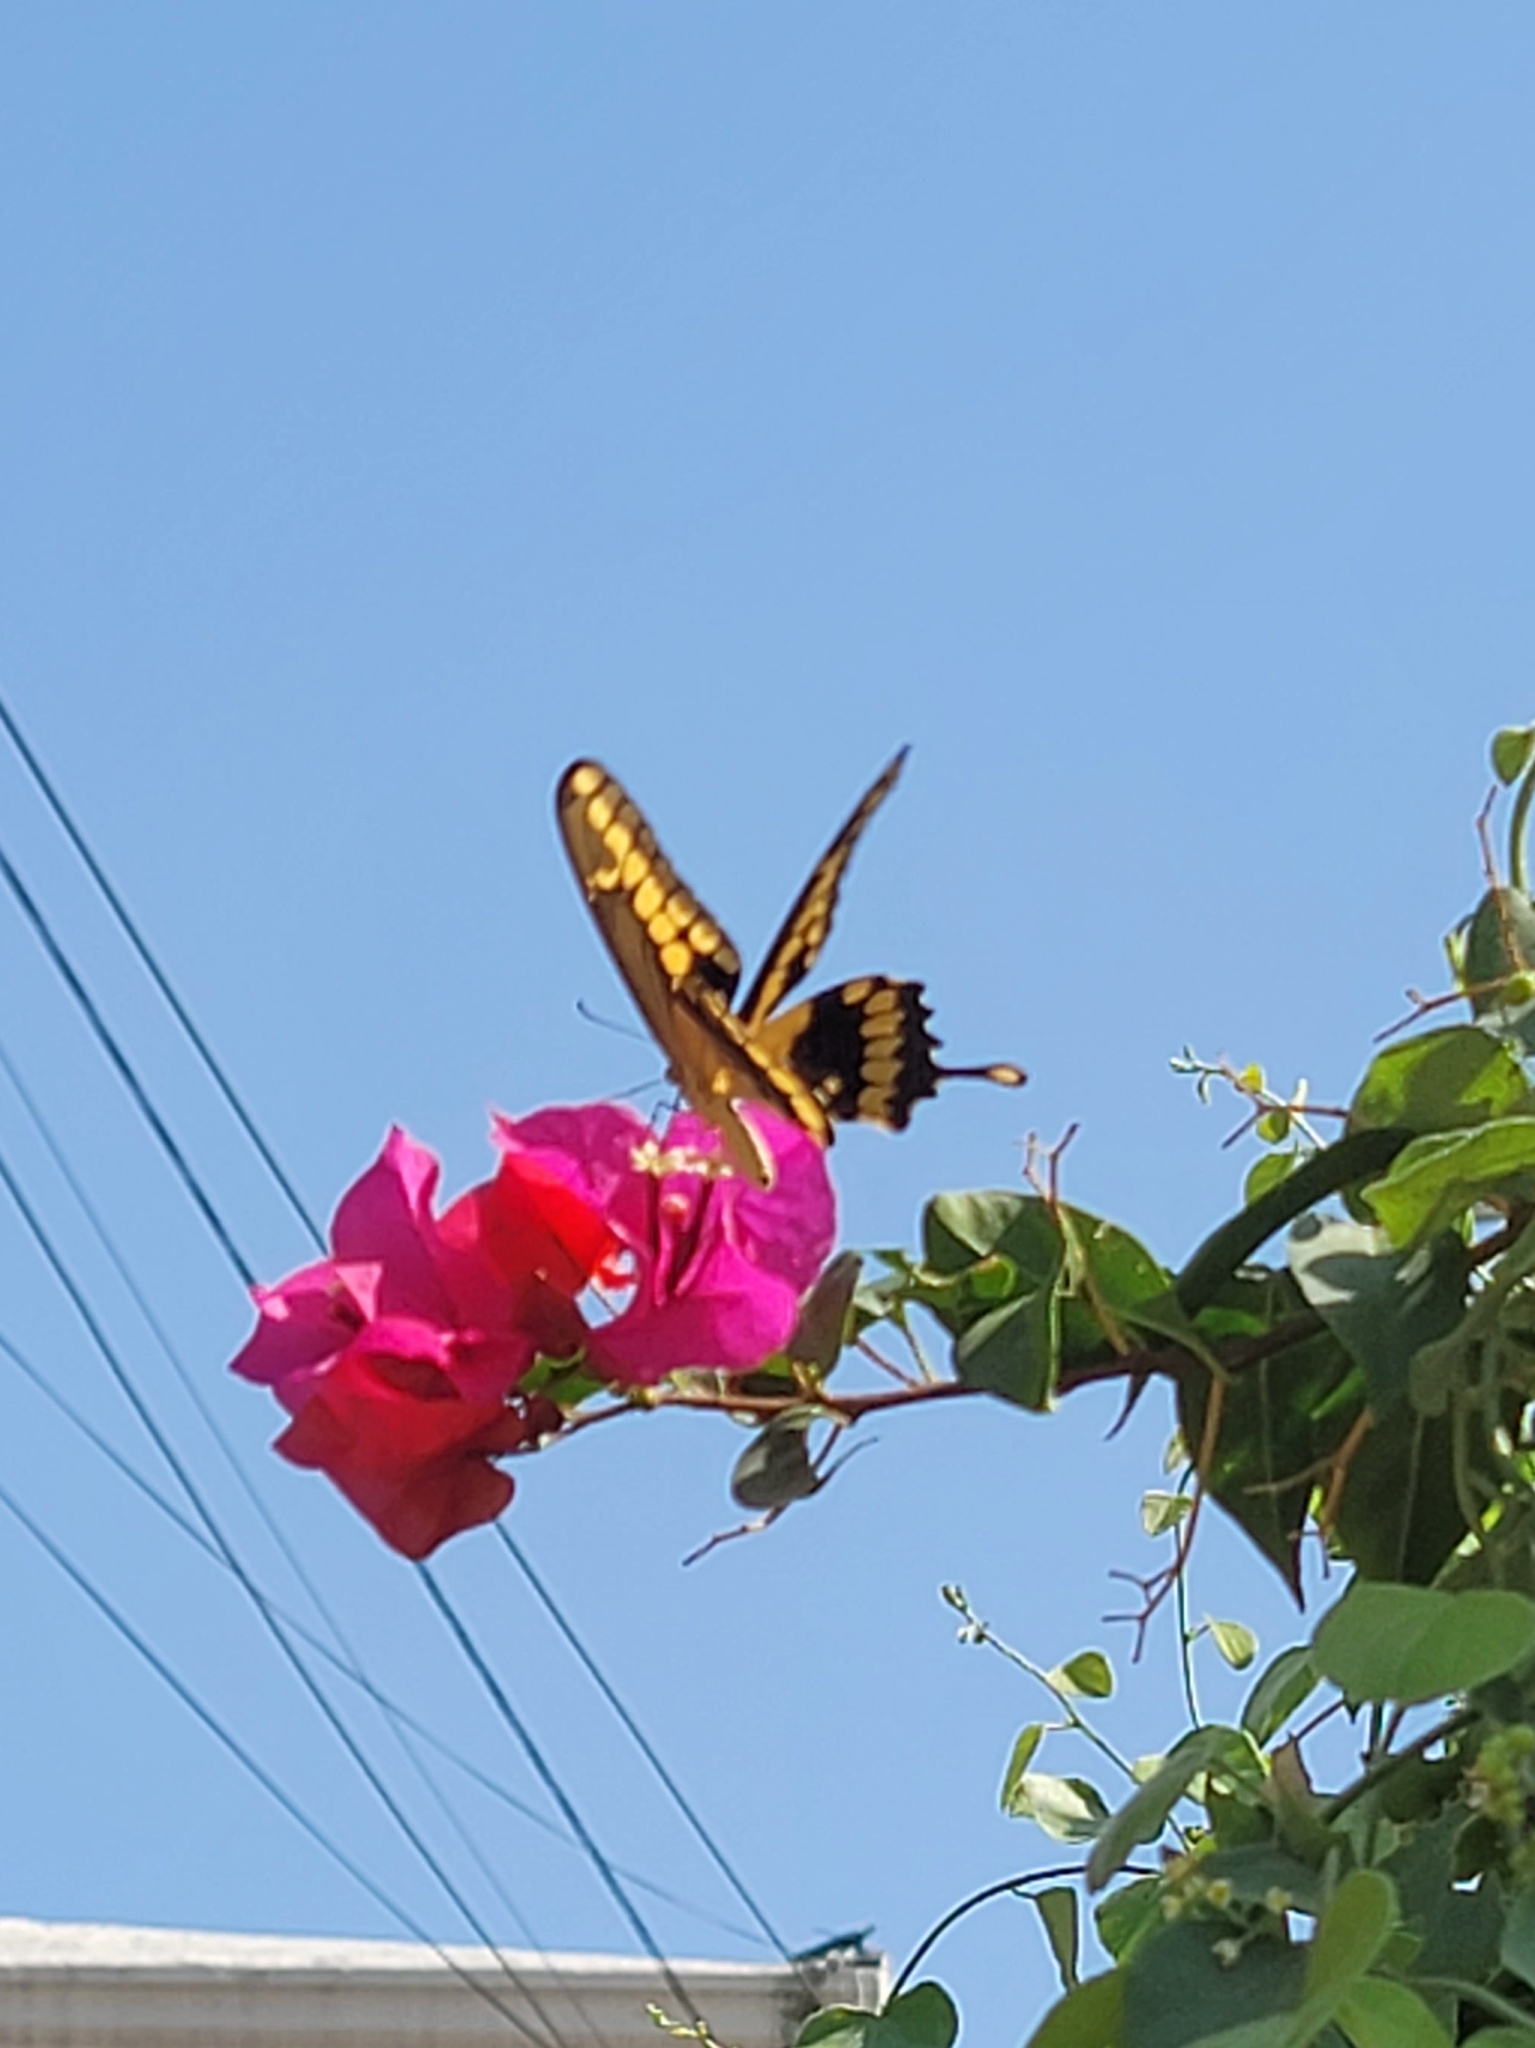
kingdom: Animalia
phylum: Arthropoda
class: Insecta
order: Lepidoptera
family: Papilionidae
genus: Papilio
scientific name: Papilio rumiko
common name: Western giant swallowtail
